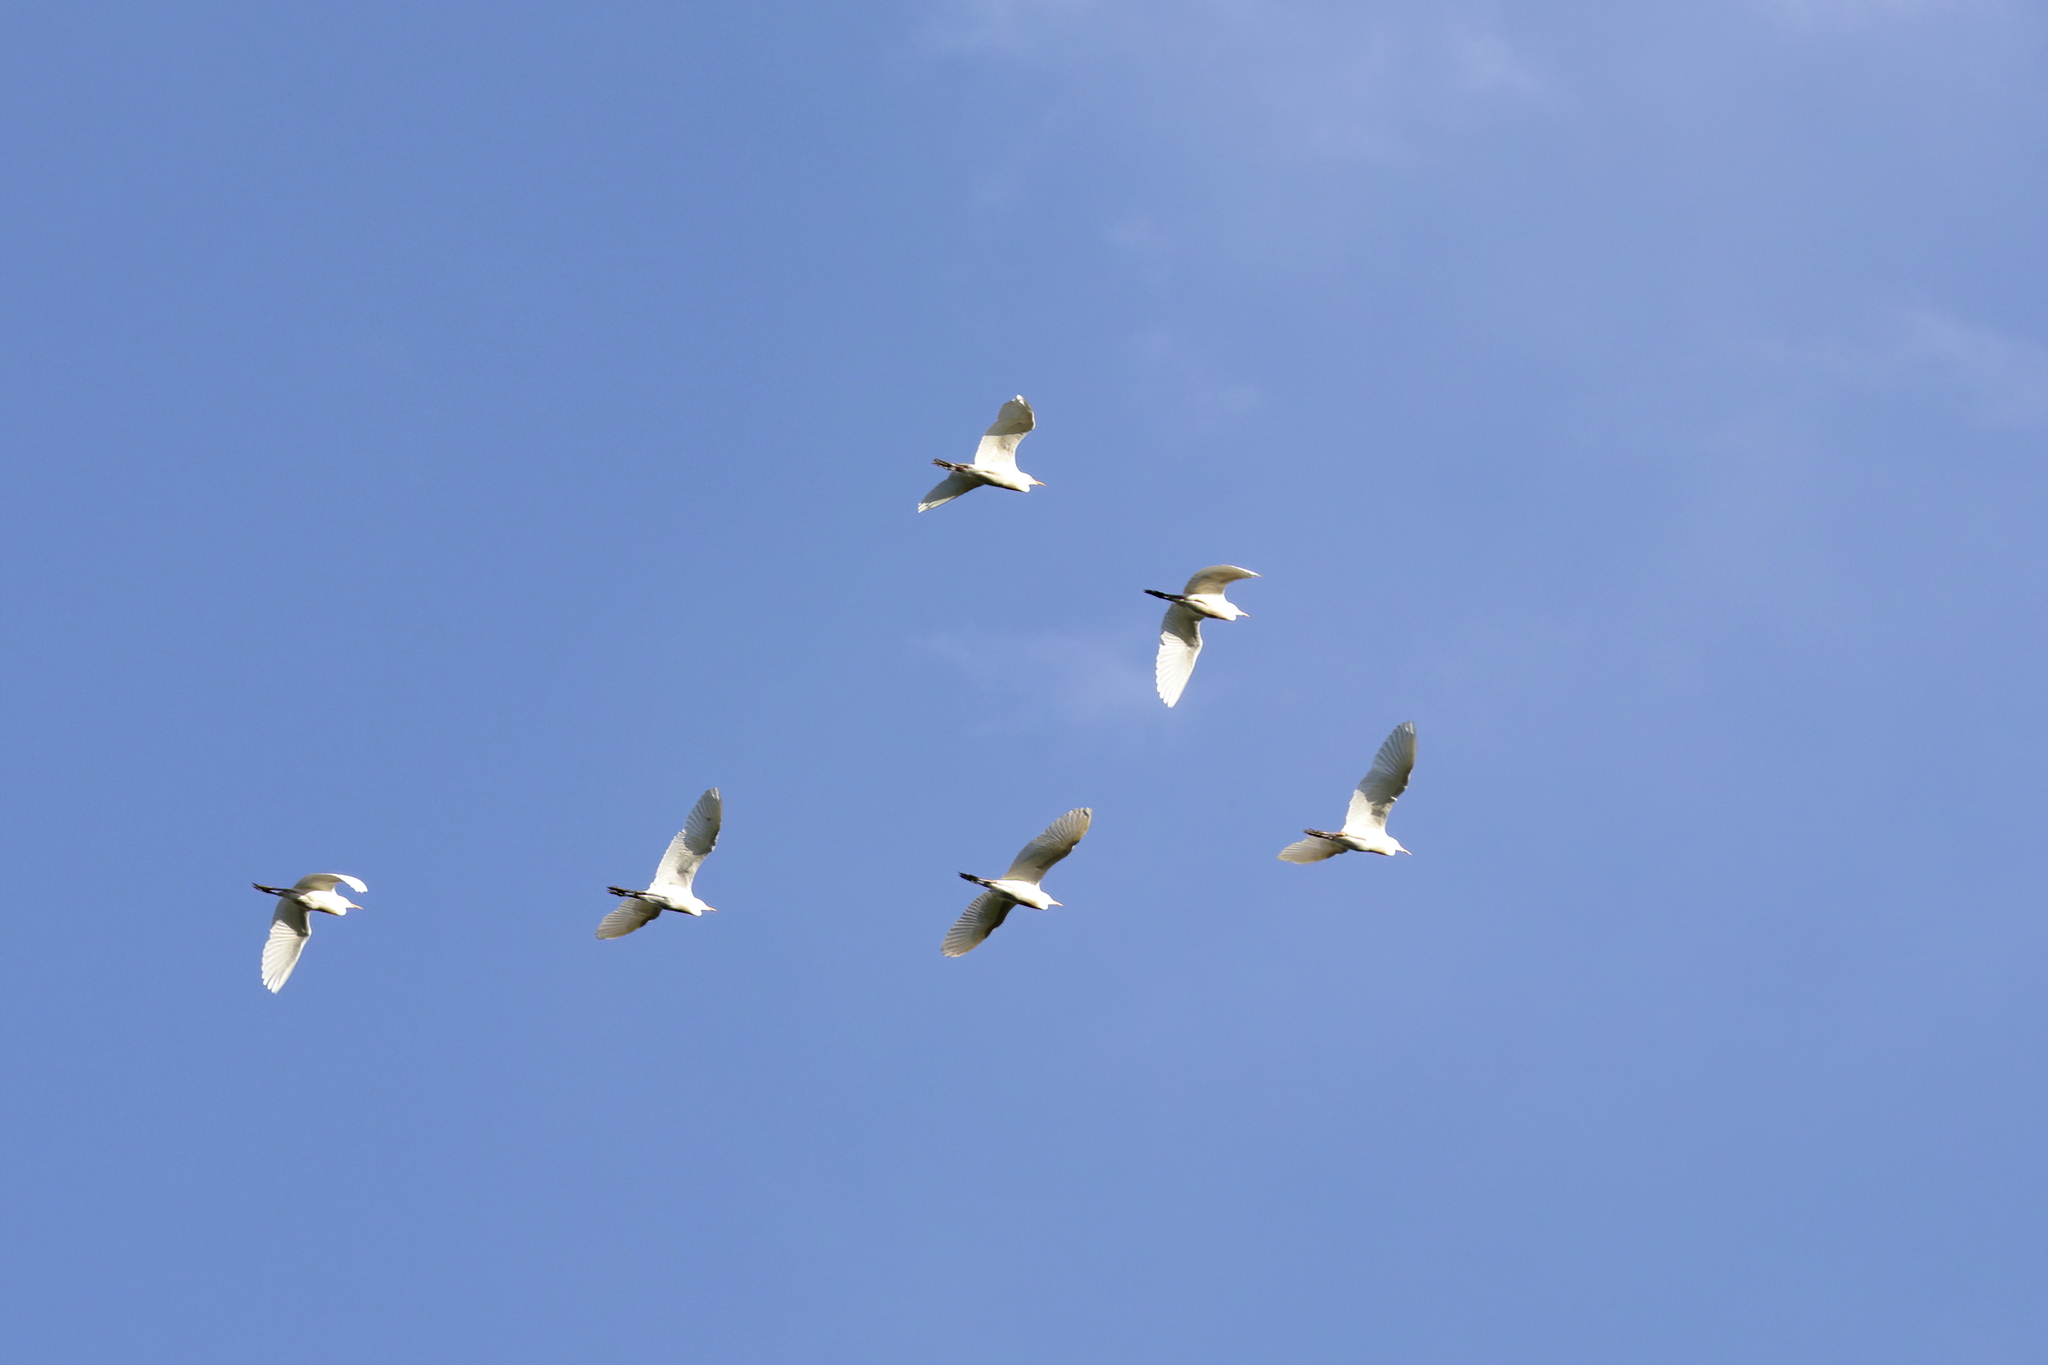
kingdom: Animalia
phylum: Chordata
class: Aves
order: Pelecaniformes
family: Ardeidae
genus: Bubulcus
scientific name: Bubulcus ibis
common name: Cattle egret
